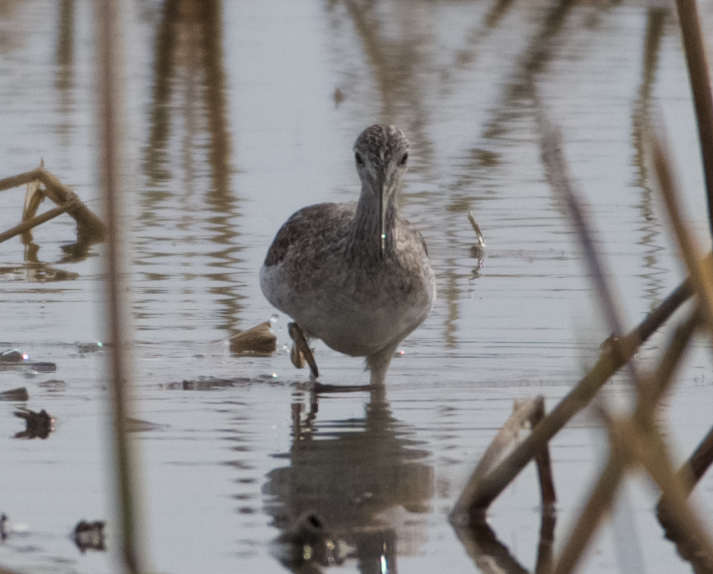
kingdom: Animalia
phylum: Chordata
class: Aves
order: Charadriiformes
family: Scolopacidae
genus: Tringa
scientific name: Tringa melanoleuca
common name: Greater yellowlegs
